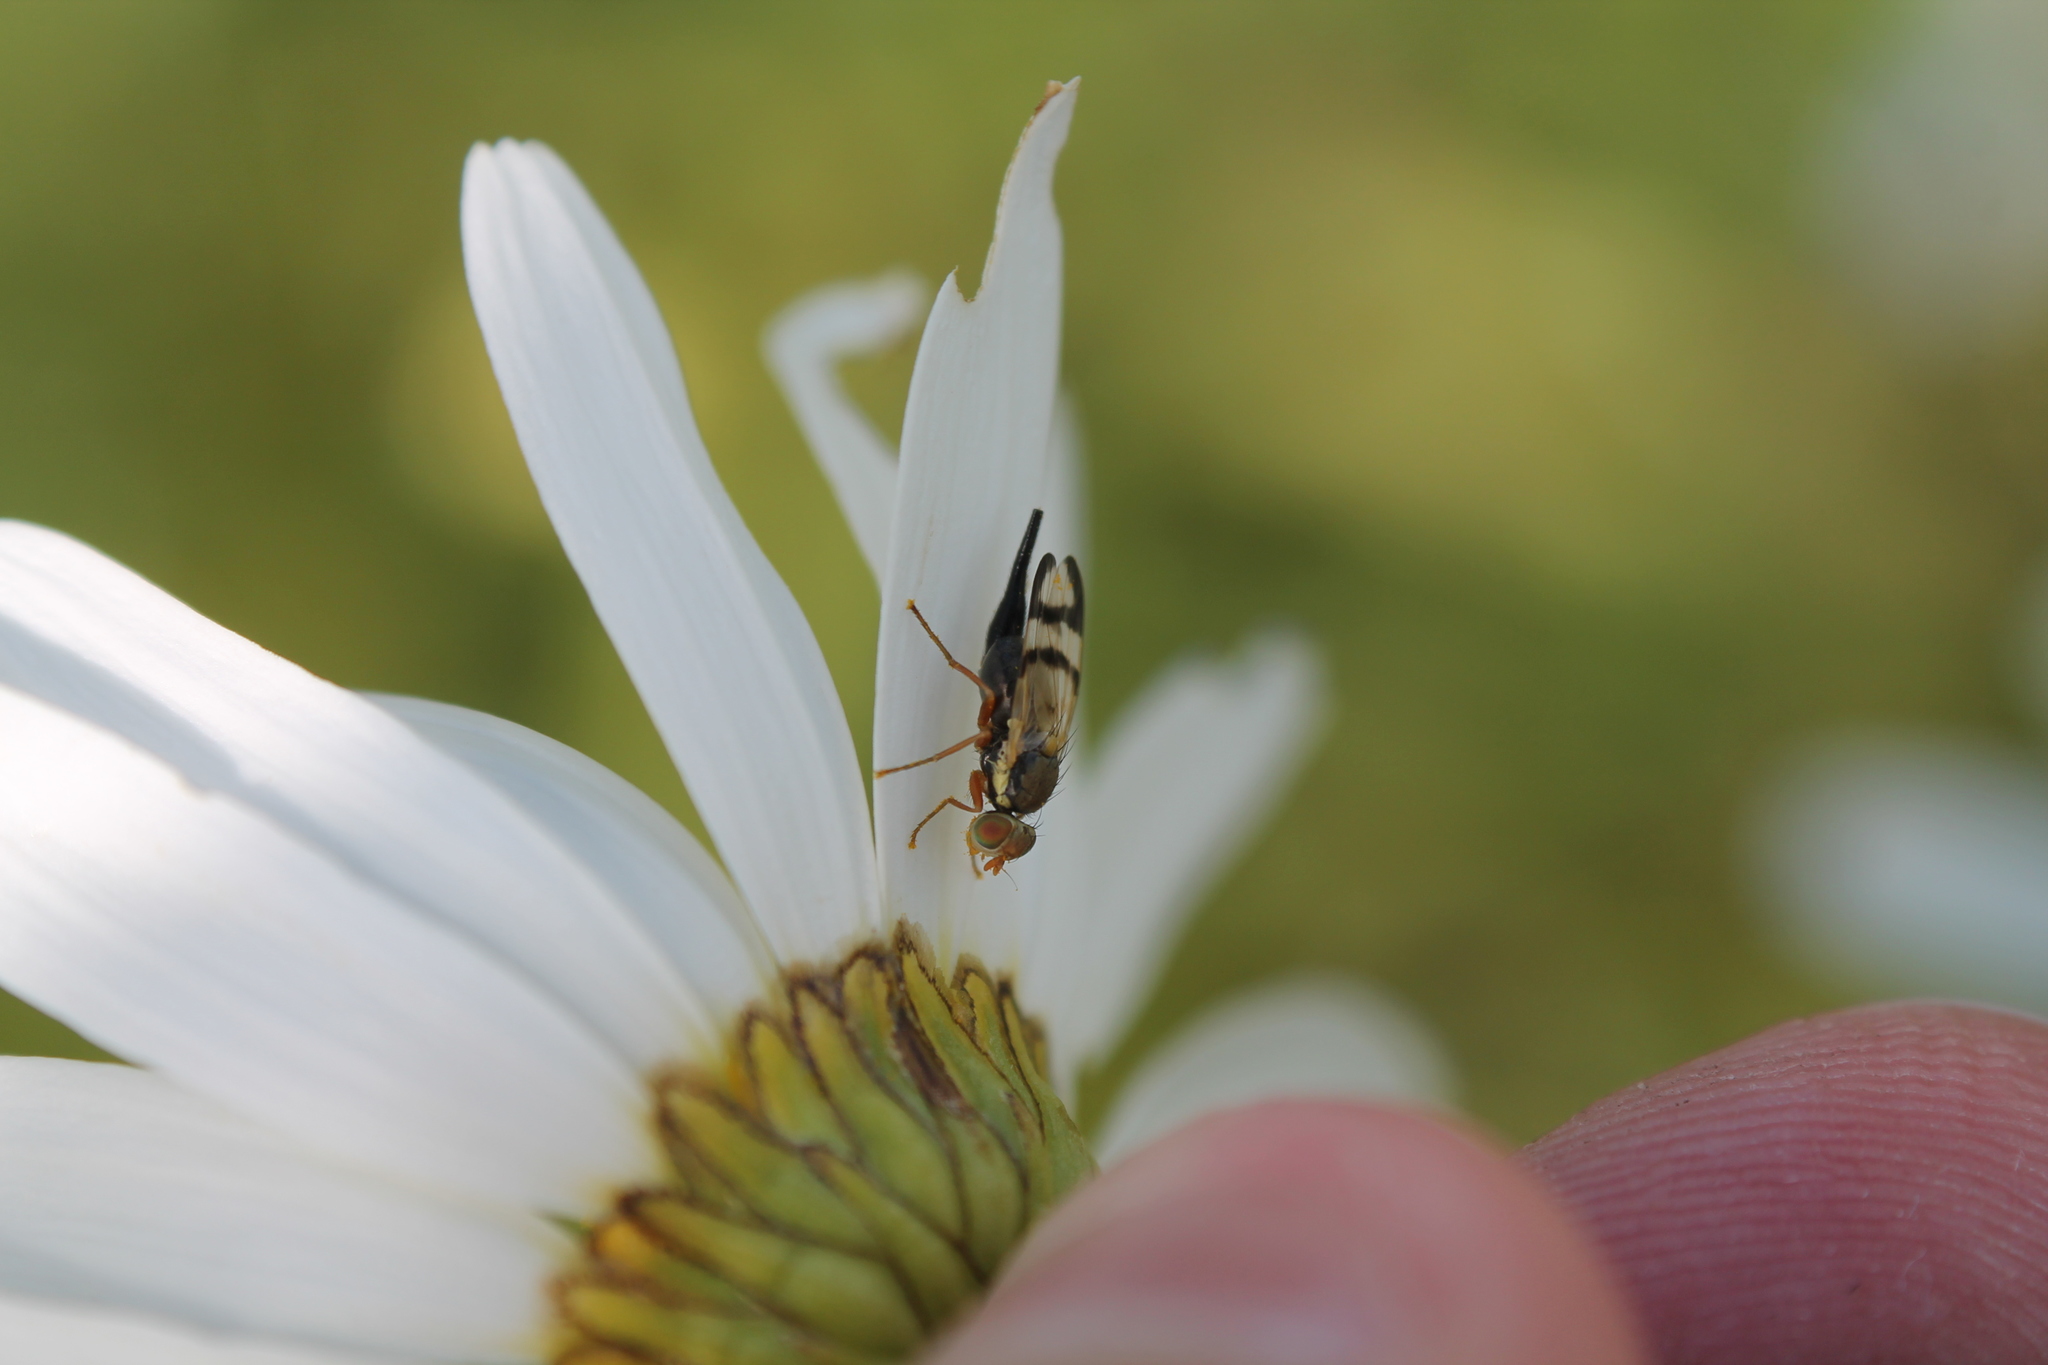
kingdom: Animalia
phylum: Arthropoda
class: Insecta
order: Diptera
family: Tephritidae
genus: Urophora
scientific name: Urophora stylata
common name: Fruit fly
